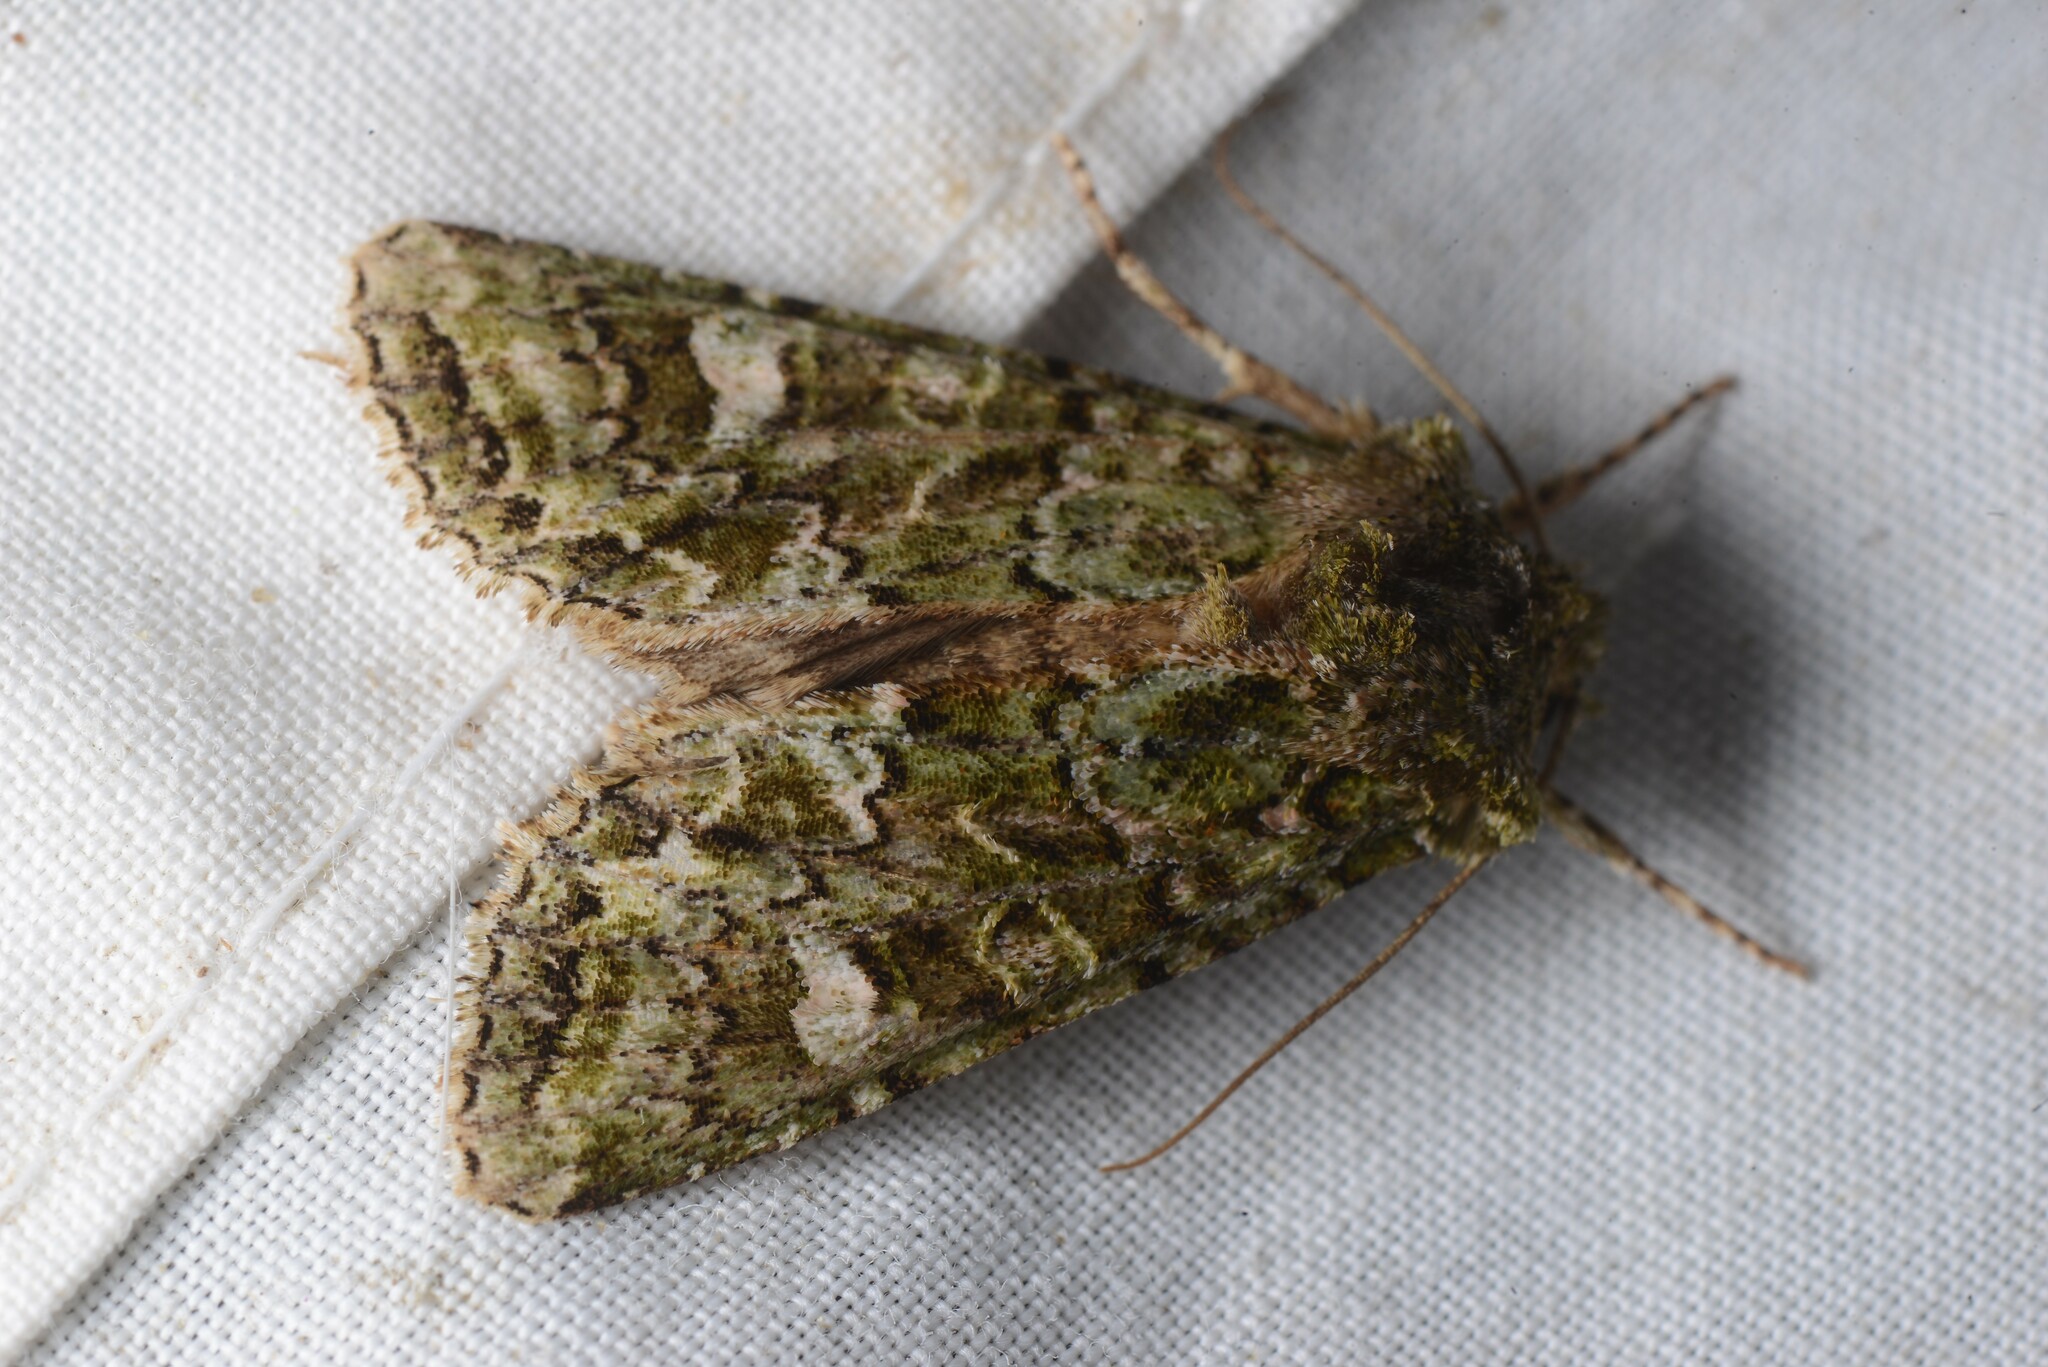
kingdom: Animalia
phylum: Arthropoda
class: Insecta
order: Lepidoptera
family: Noctuidae
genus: Ichneutica
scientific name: Ichneutica
